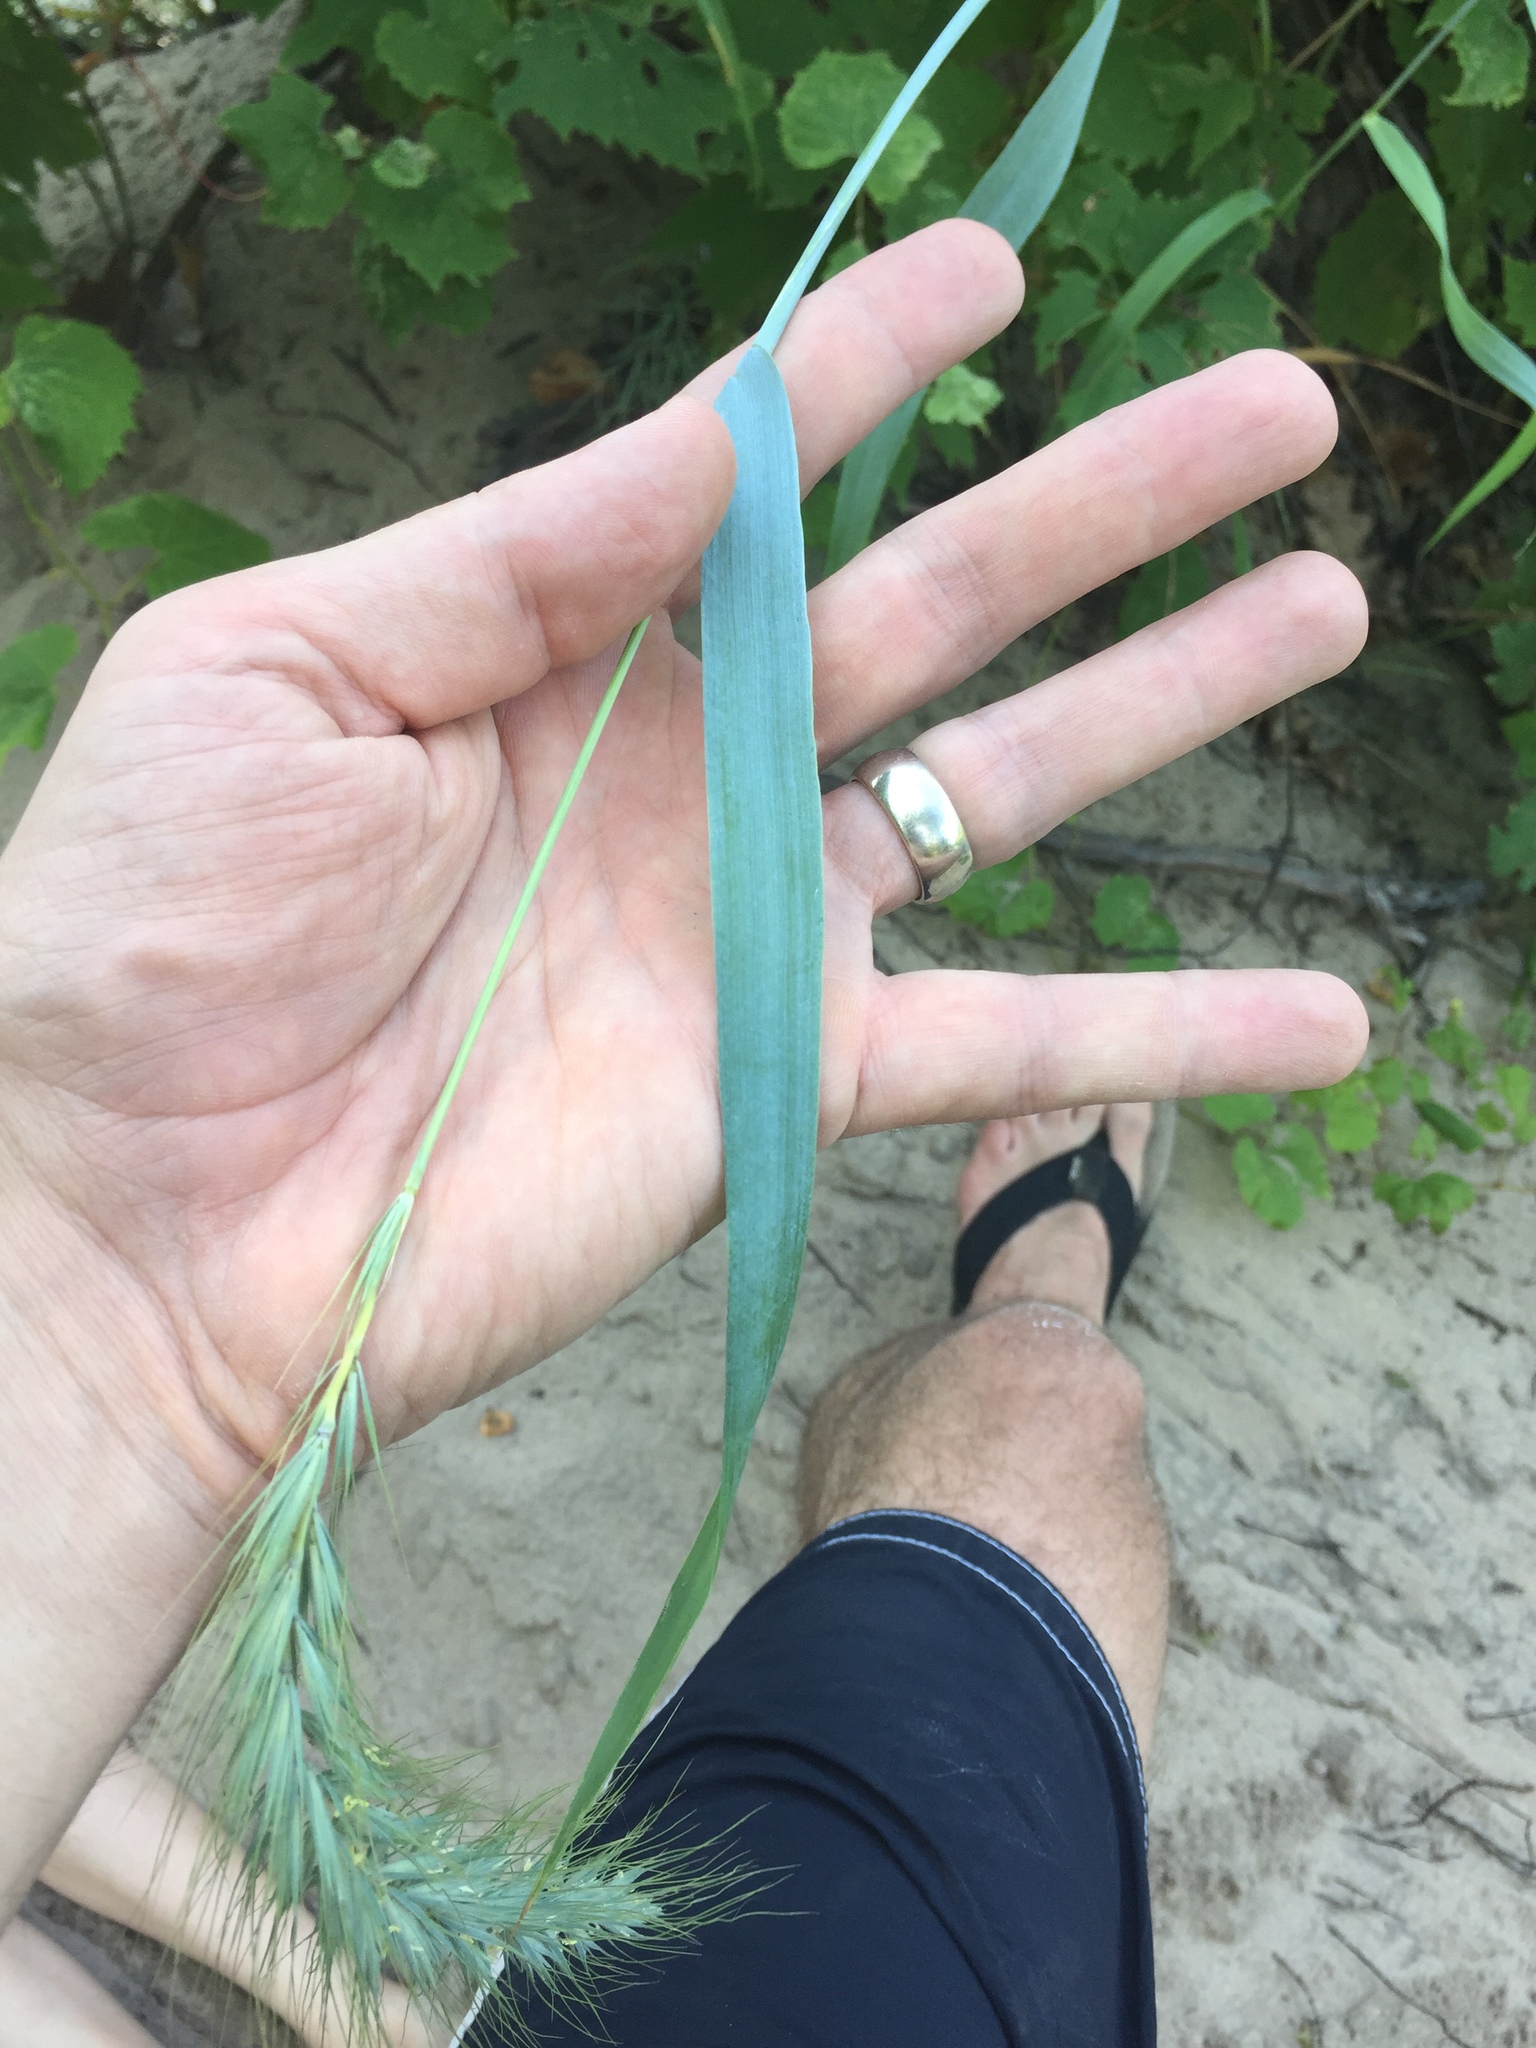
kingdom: Plantae
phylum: Tracheophyta
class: Liliopsida
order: Poales
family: Poaceae
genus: Elymus
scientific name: Elymus canadensis
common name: Canada wild rye
